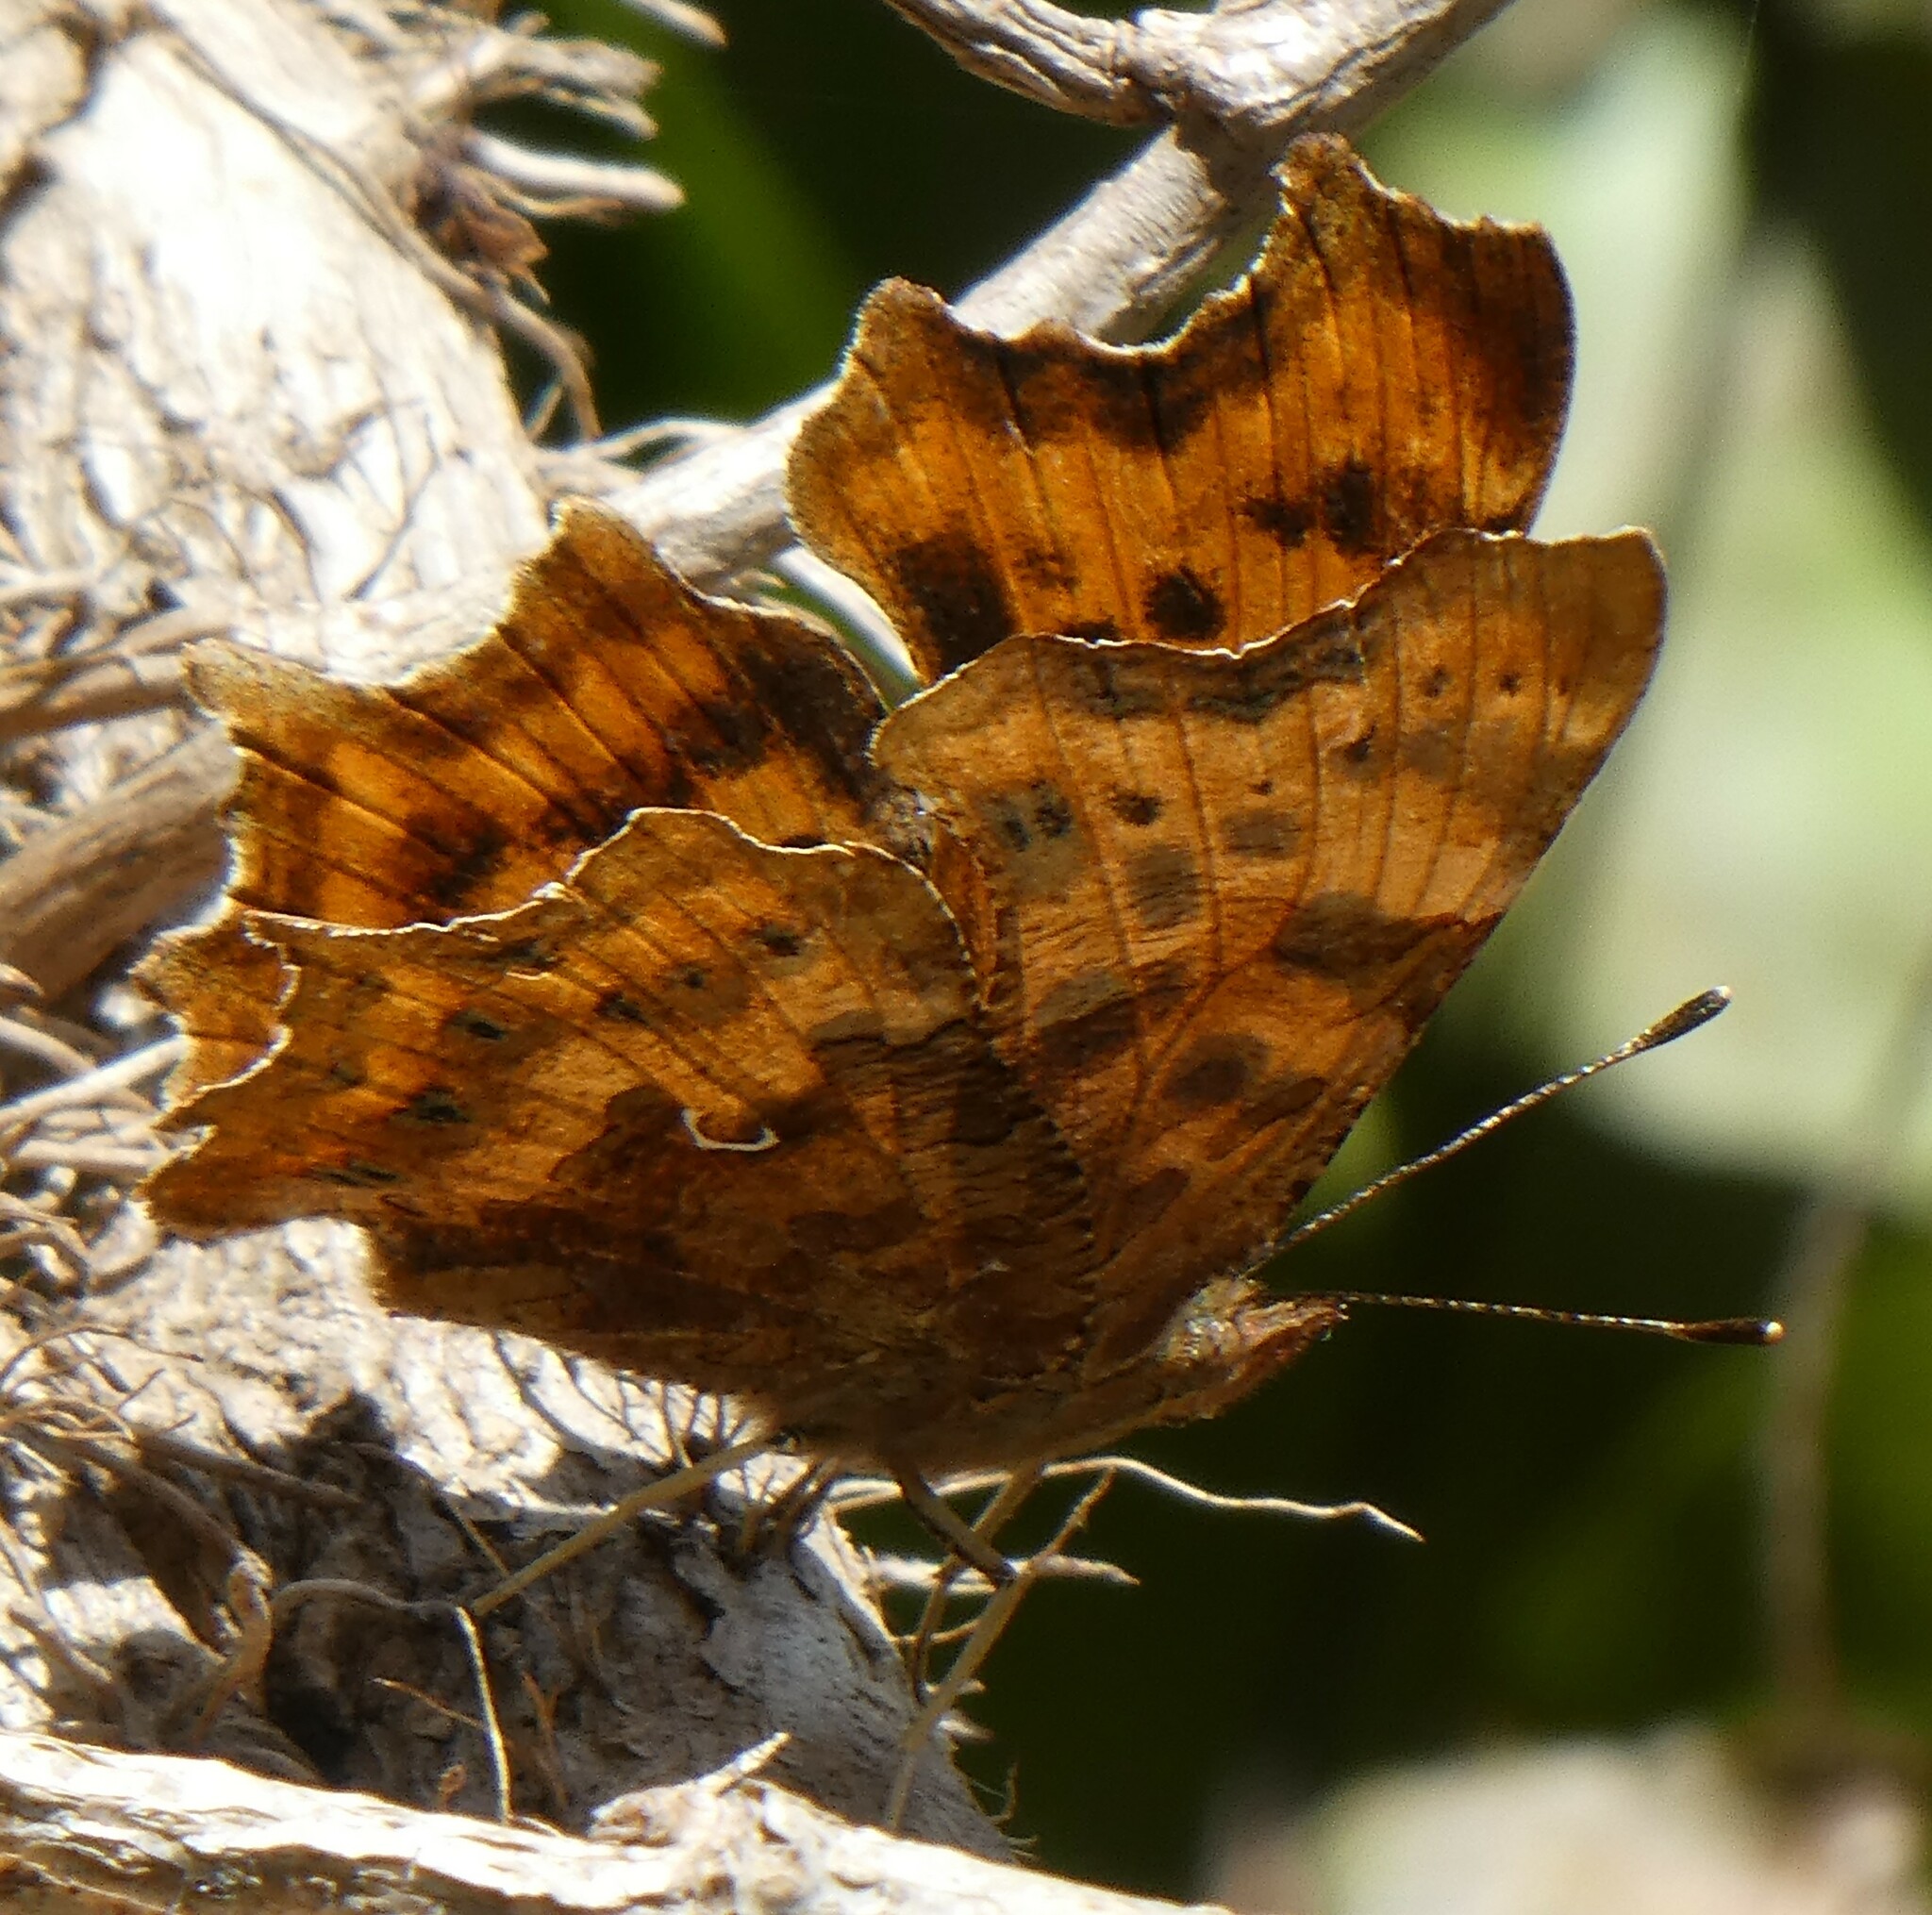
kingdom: Animalia
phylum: Arthropoda
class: Insecta
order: Lepidoptera
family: Nymphalidae
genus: Polygonia
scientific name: Polygonia c-album
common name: Comma
